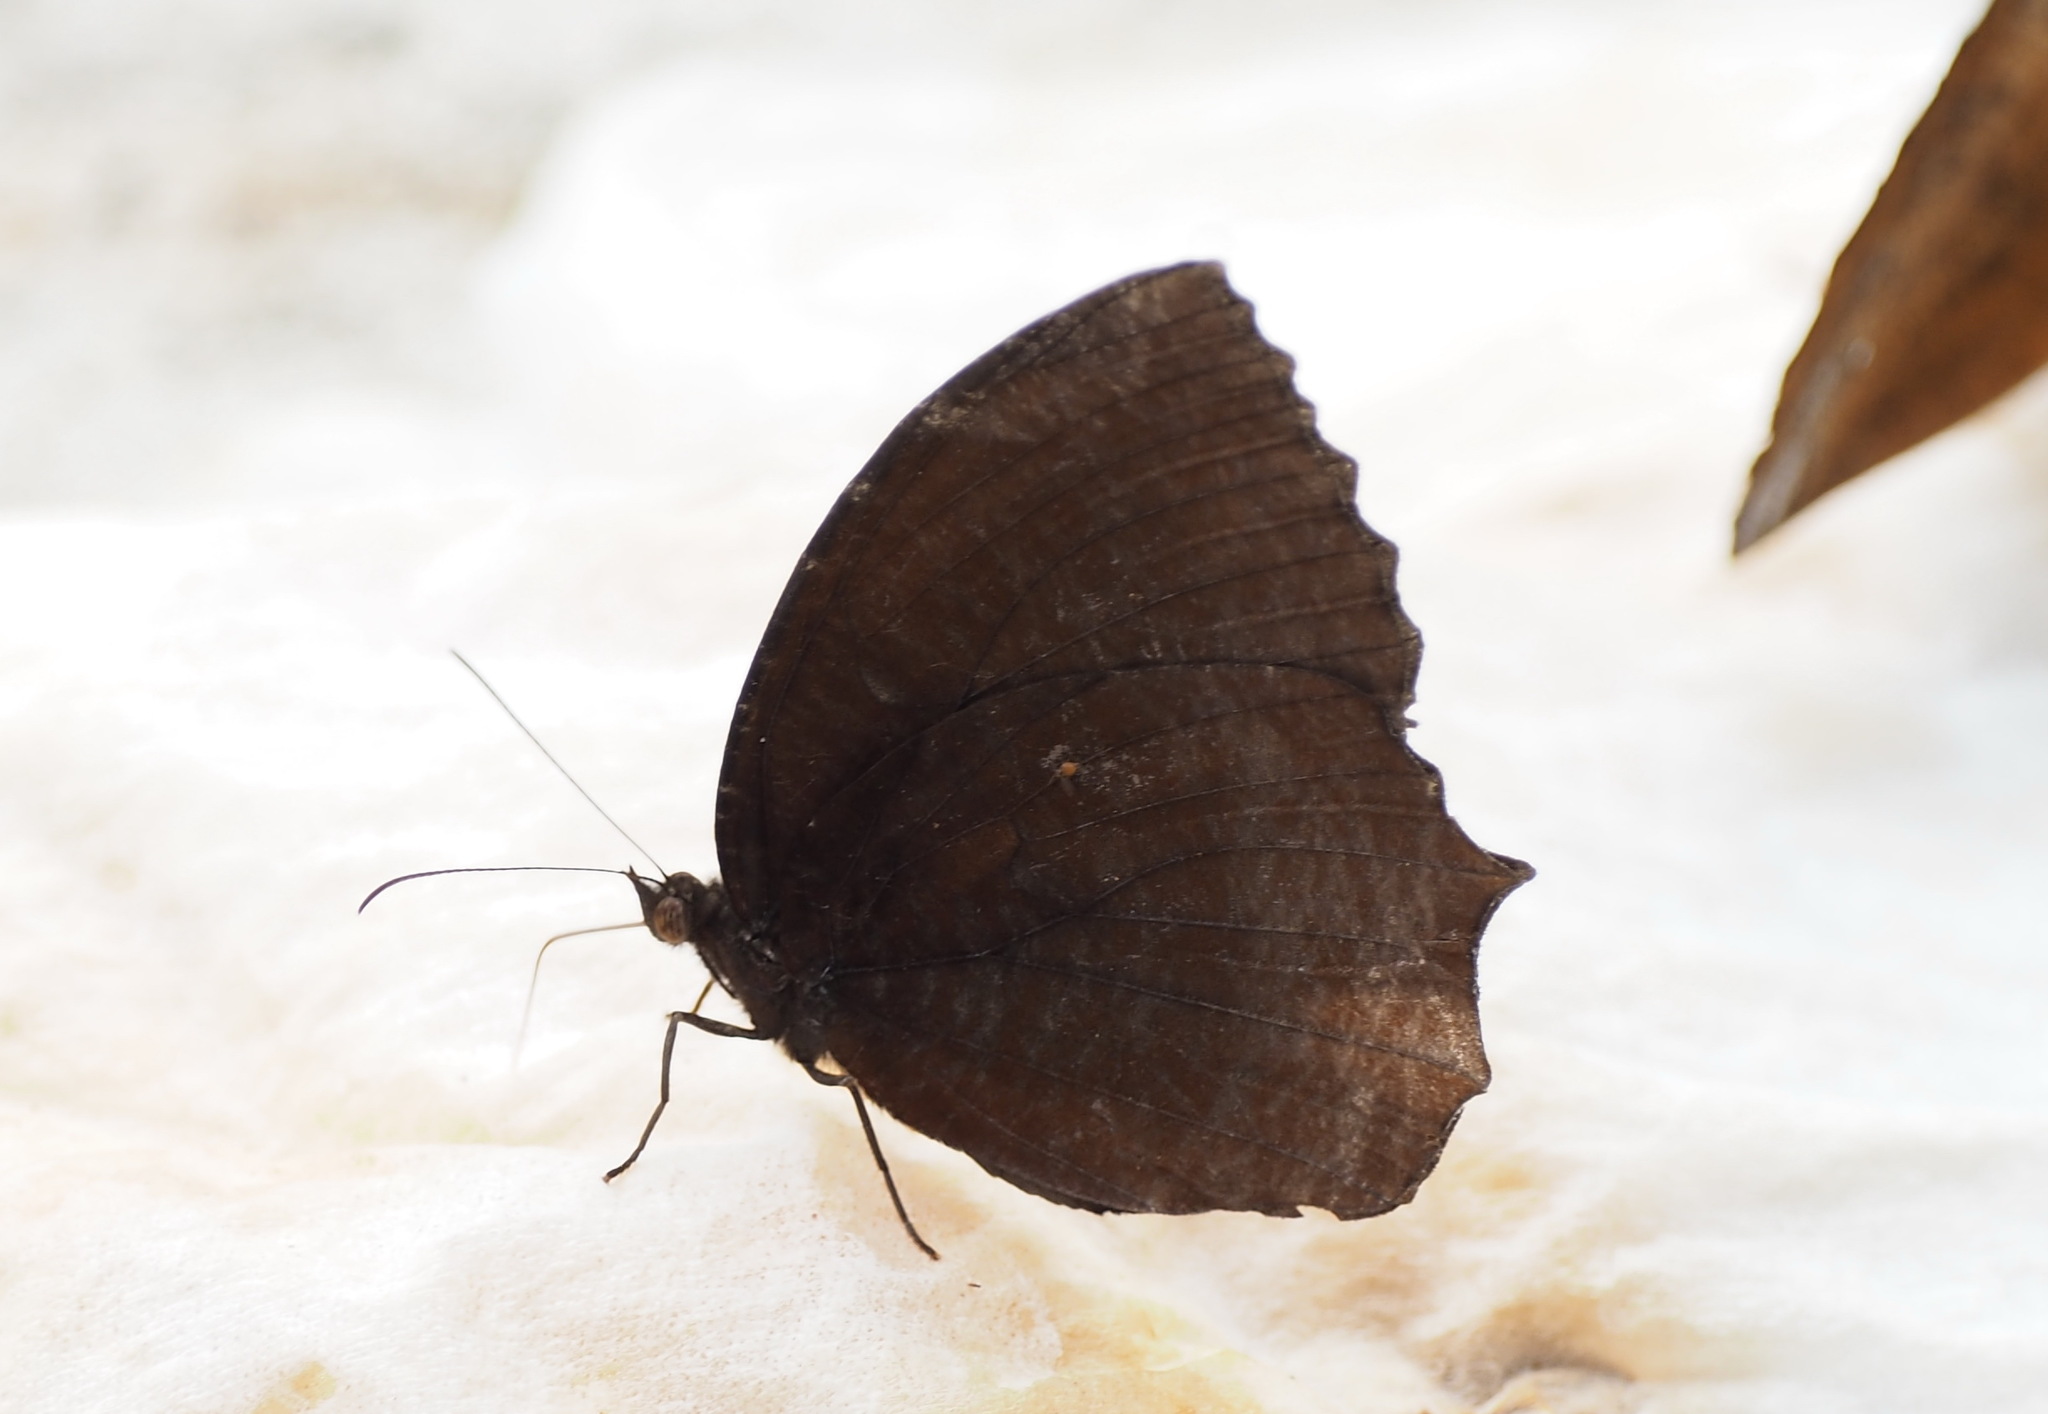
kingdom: Animalia
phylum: Arthropoda
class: Insecta
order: Lepidoptera
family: Nymphalidae
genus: Elymnias
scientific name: Elymnias hypermnestra
